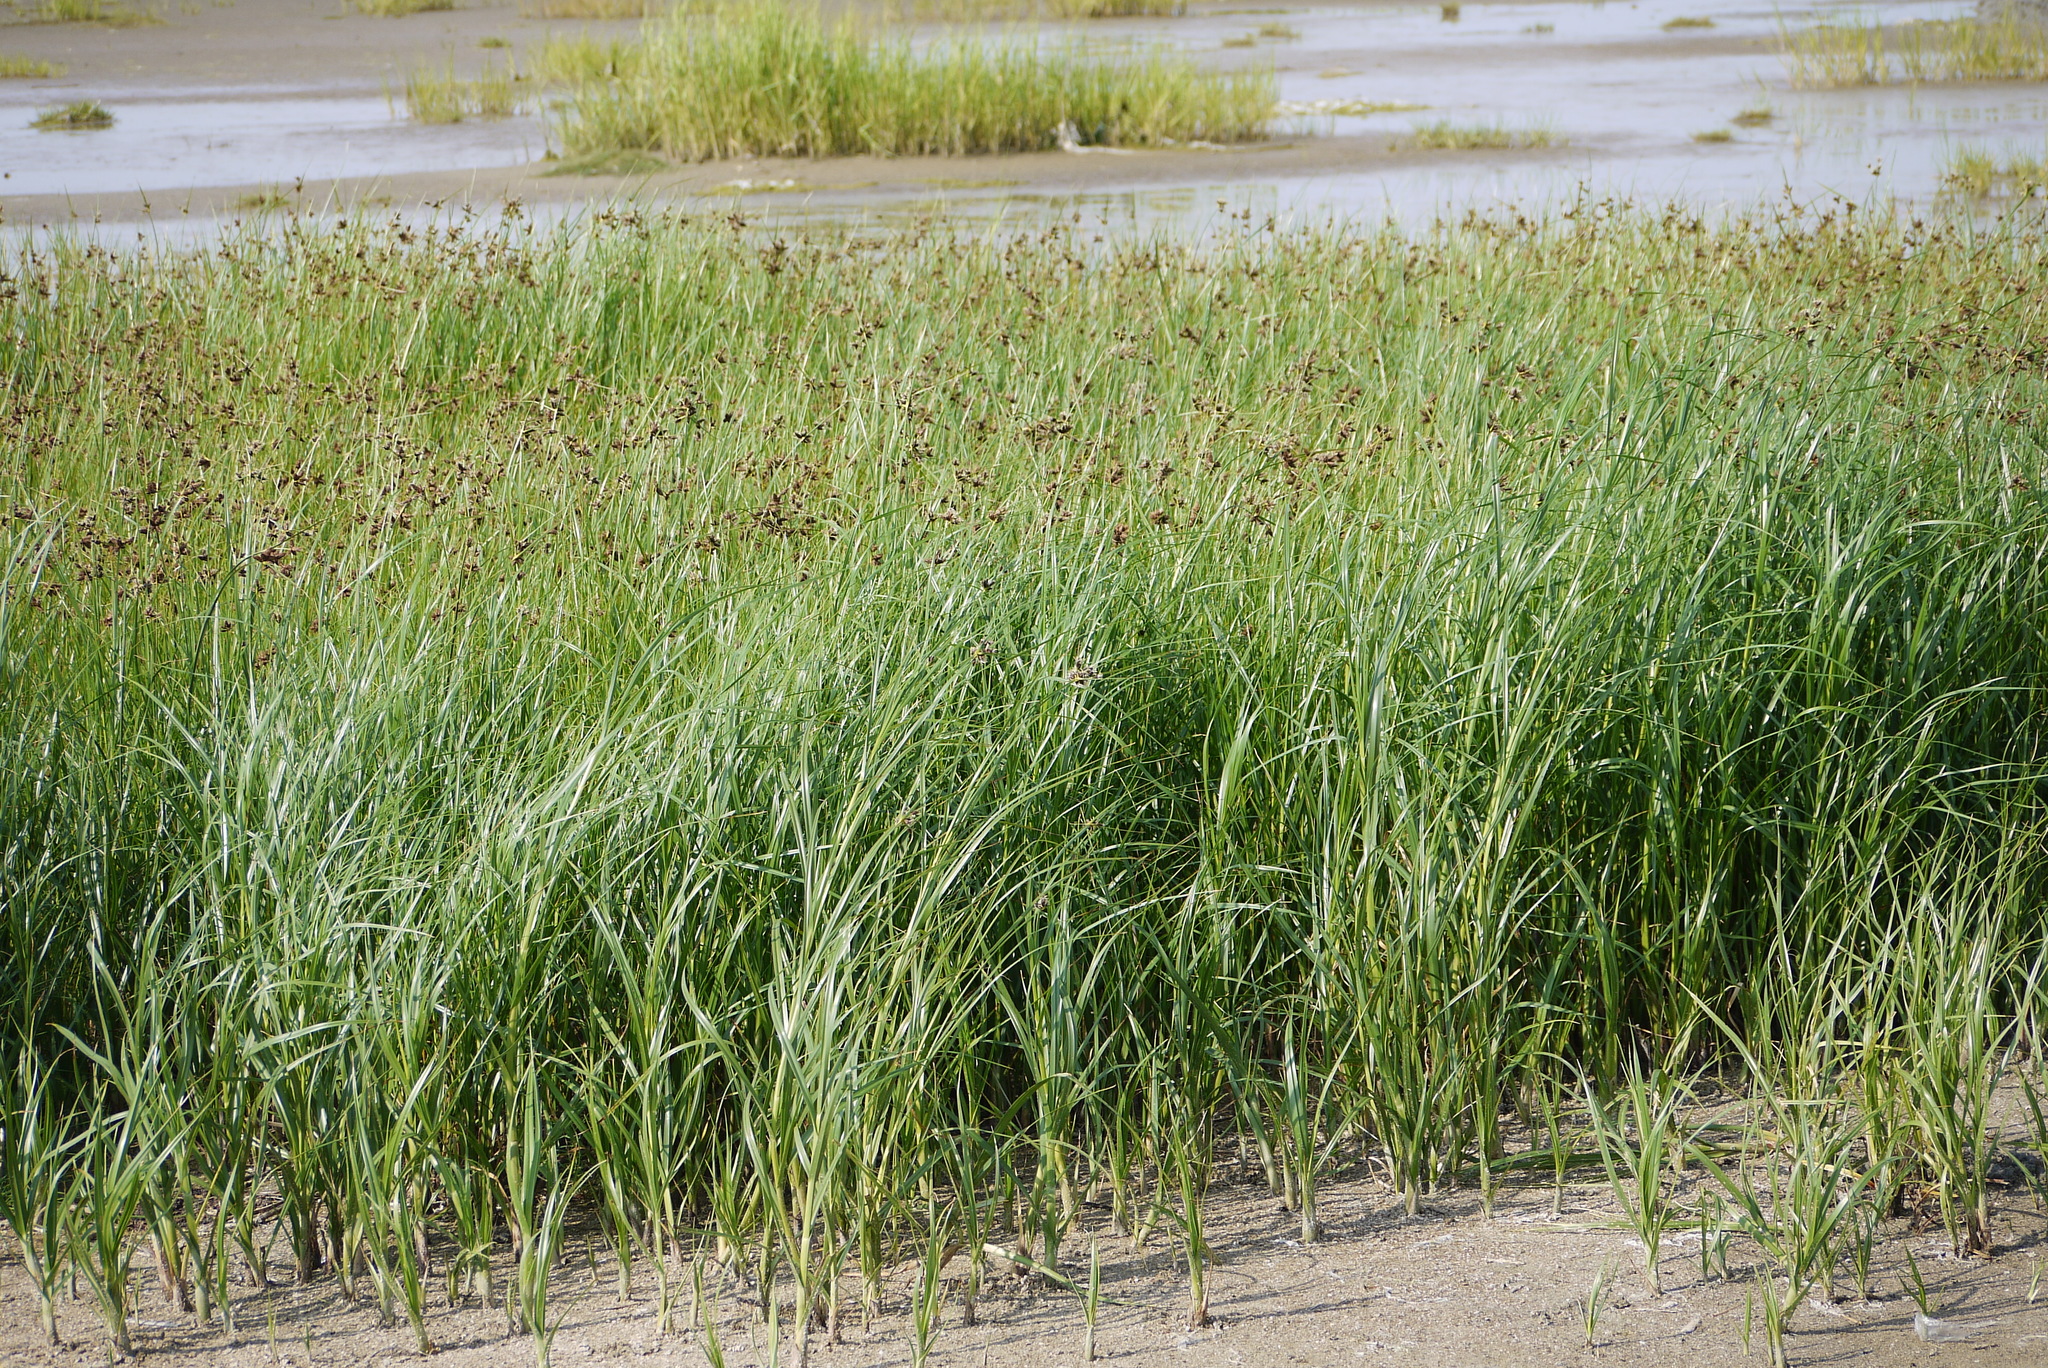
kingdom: Plantae
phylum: Tracheophyta
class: Liliopsida
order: Poales
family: Cyperaceae
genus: Bolboschoenus
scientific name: Bolboschoenus maritimus
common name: Sea club-rush
